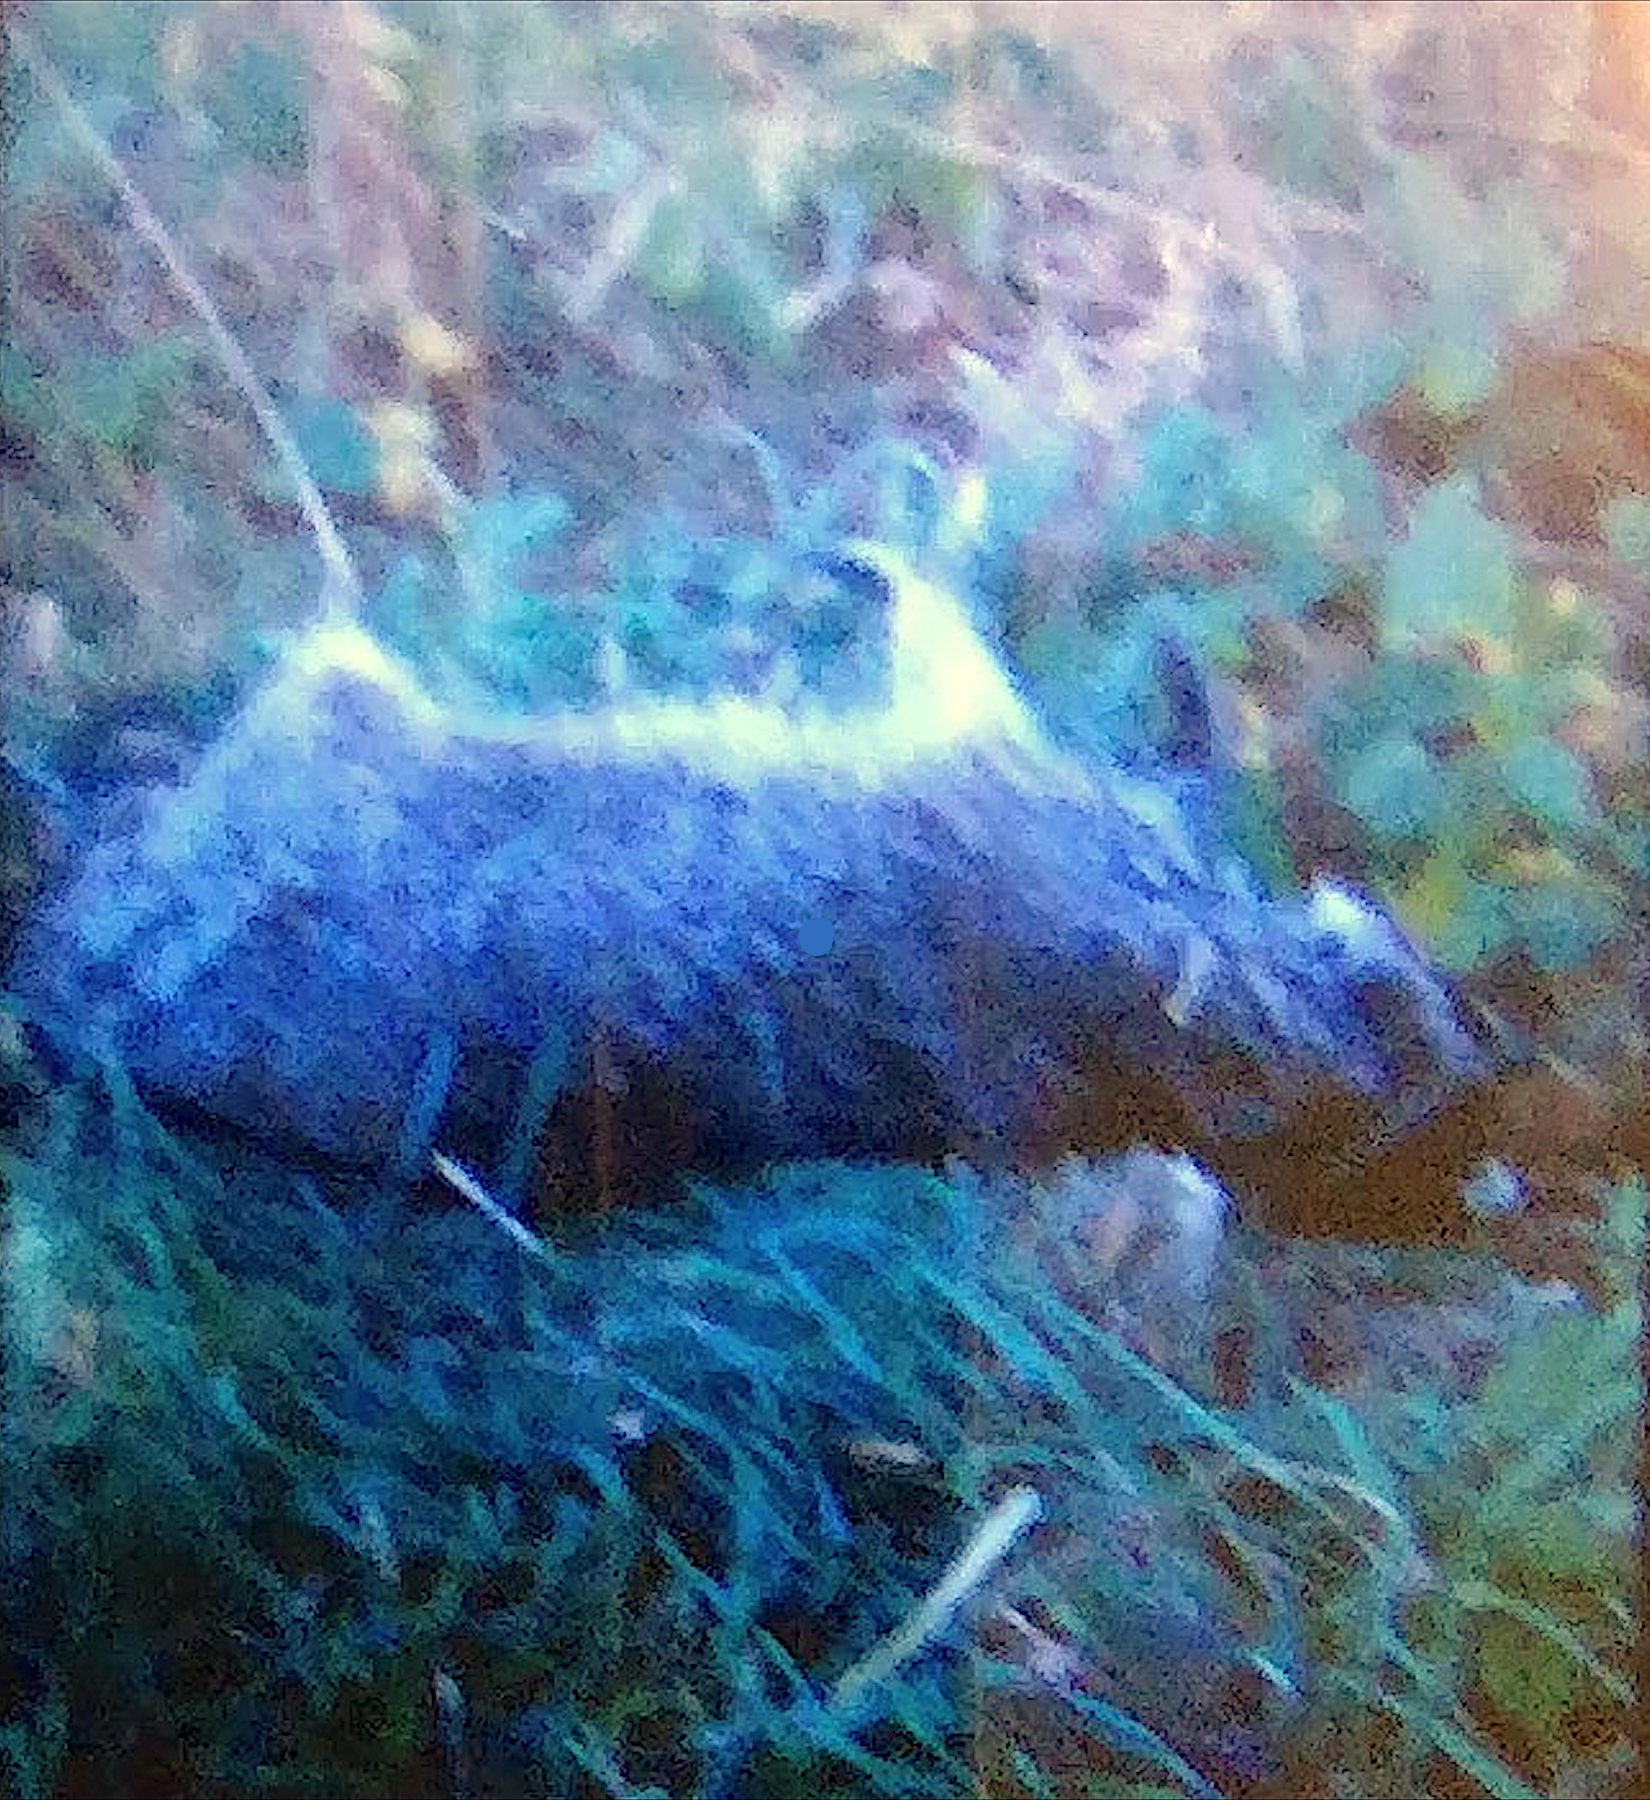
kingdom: Animalia
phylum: Chordata
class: Mammalia
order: Carnivora
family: Procyonidae
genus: Procyon
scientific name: Procyon lotor
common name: Raccoon
